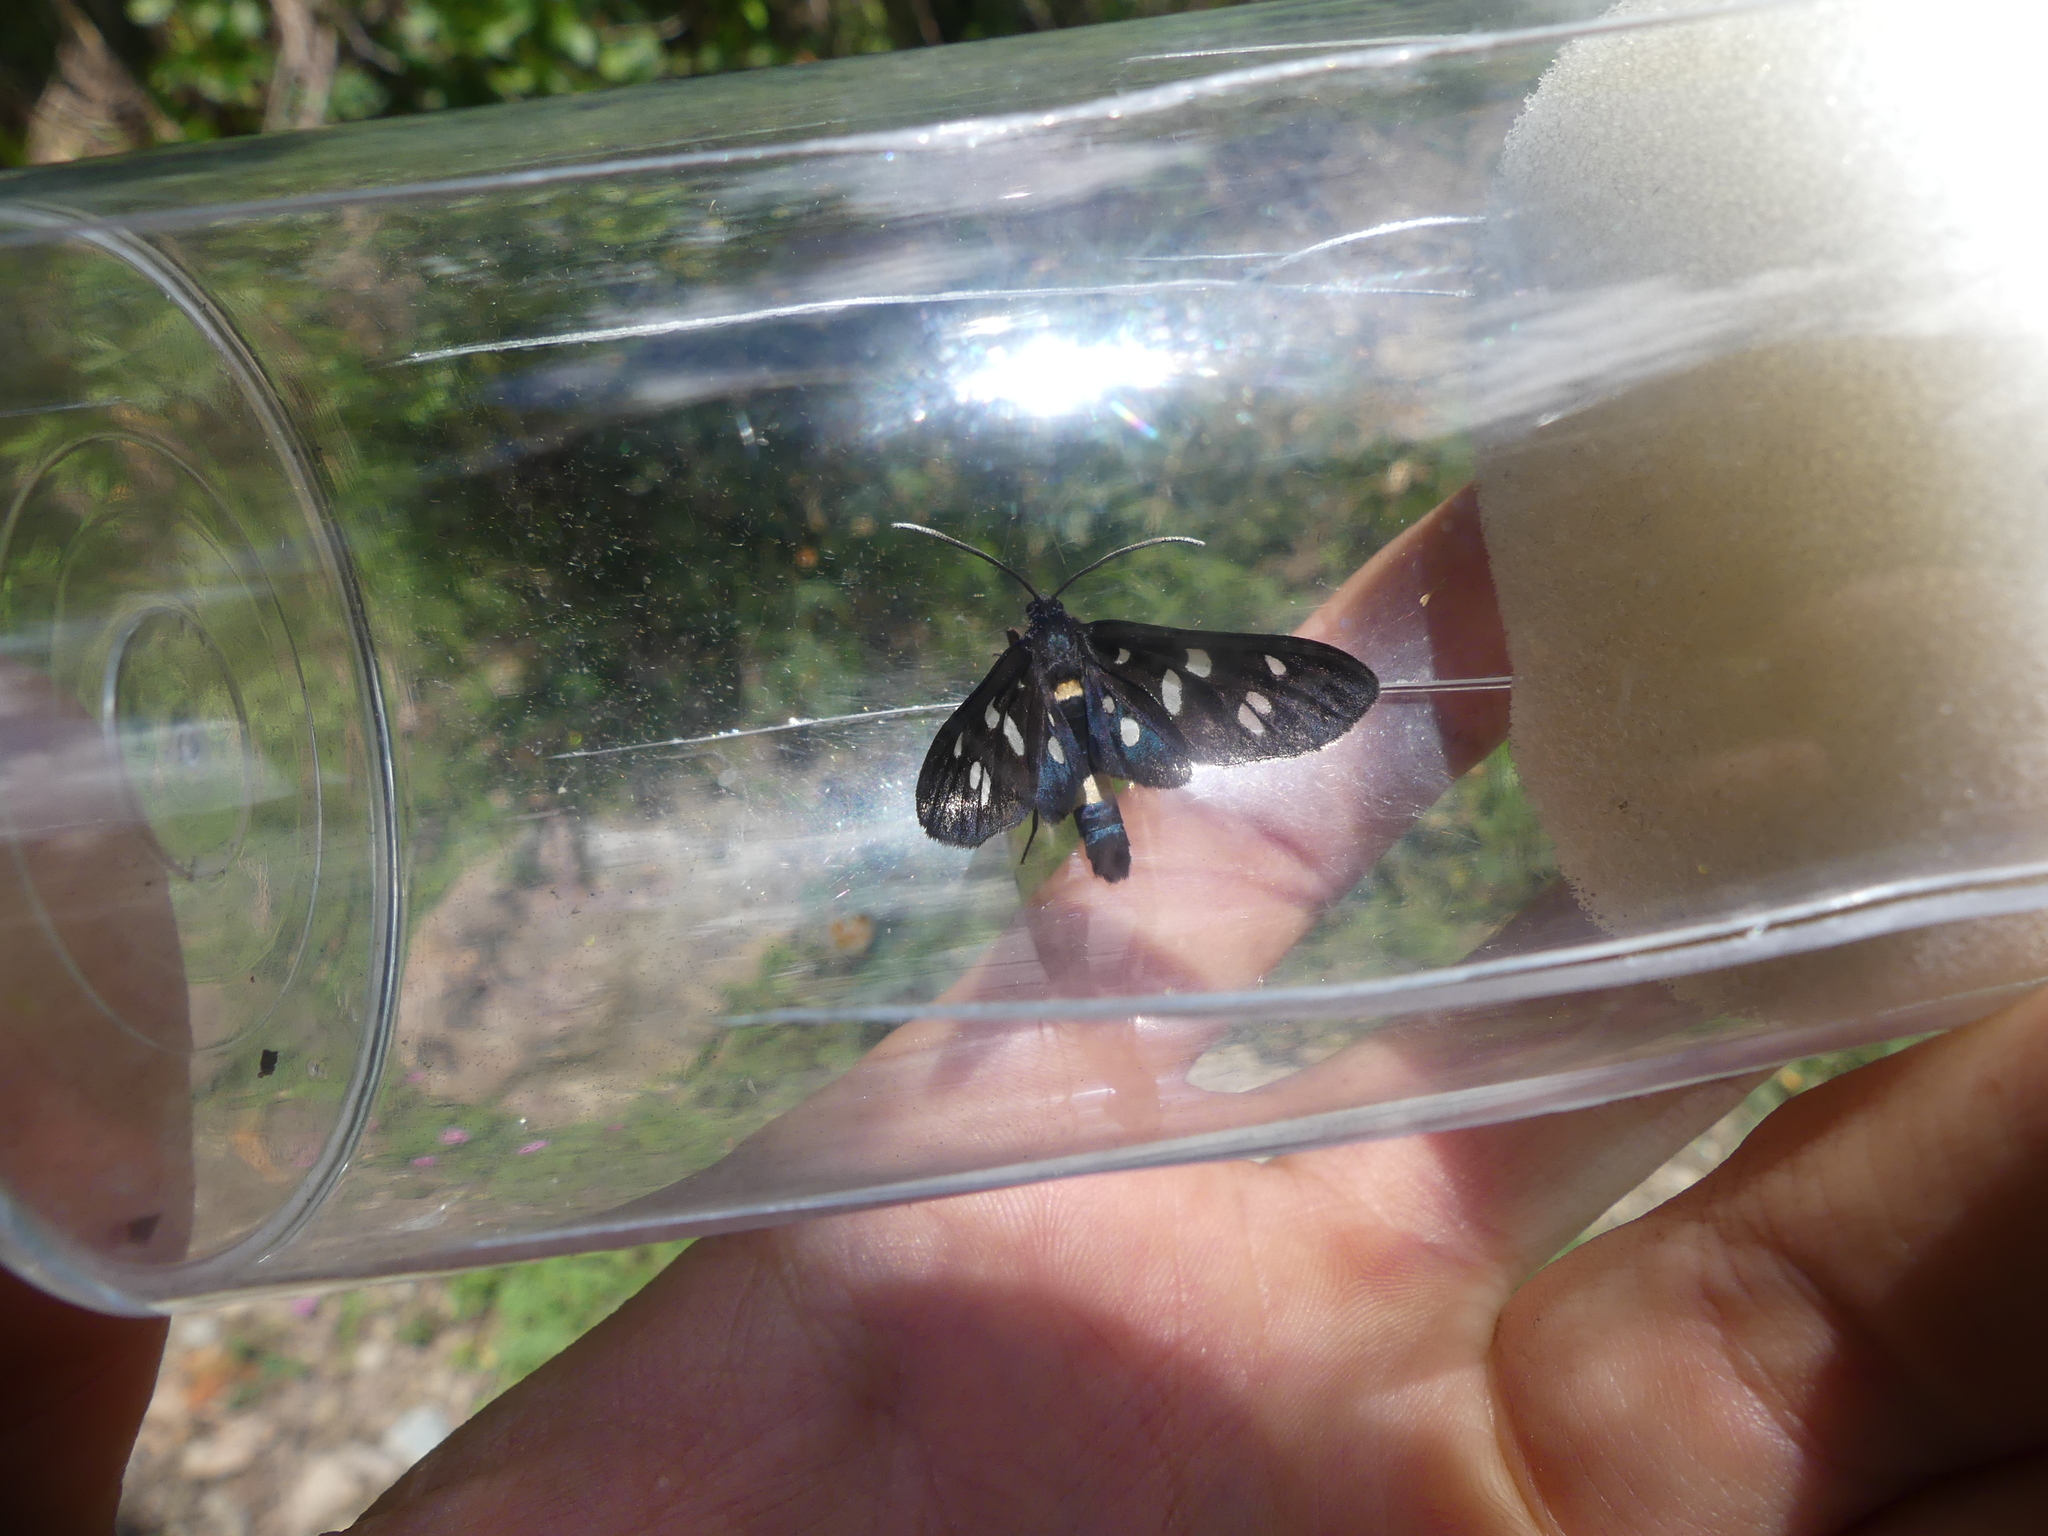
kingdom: Animalia
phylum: Arthropoda
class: Insecta
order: Lepidoptera
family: Erebidae
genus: Amata
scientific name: Amata phegea
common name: Nine-spotted
